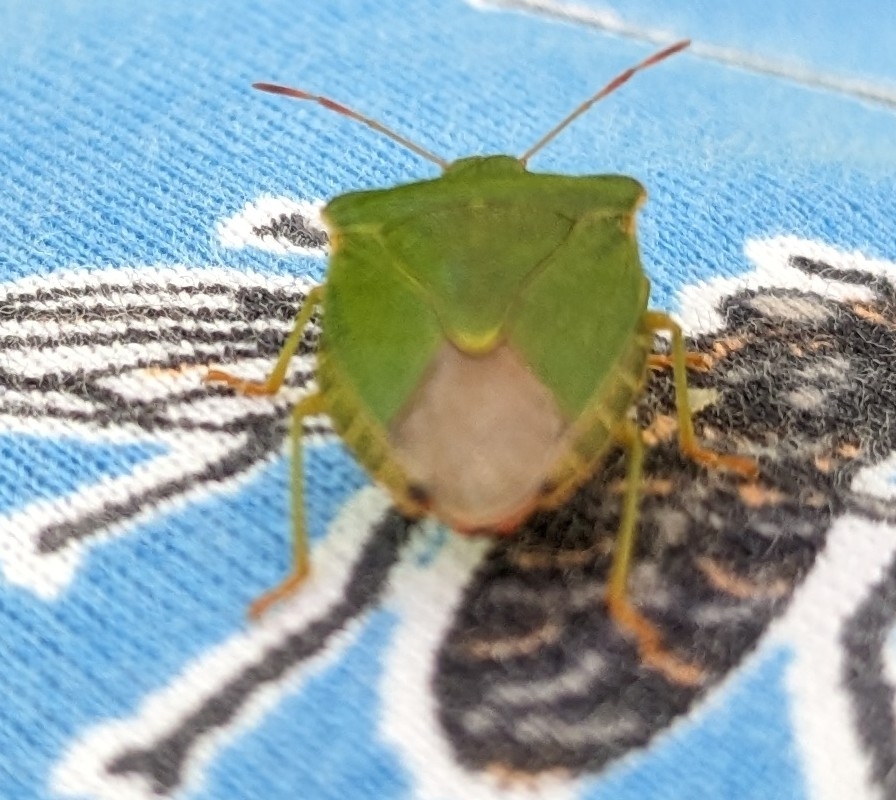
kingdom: Animalia
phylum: Arthropoda
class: Insecta
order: Hemiptera
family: Pentatomidae
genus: Palomena
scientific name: Palomena prasina
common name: Green shieldbug
